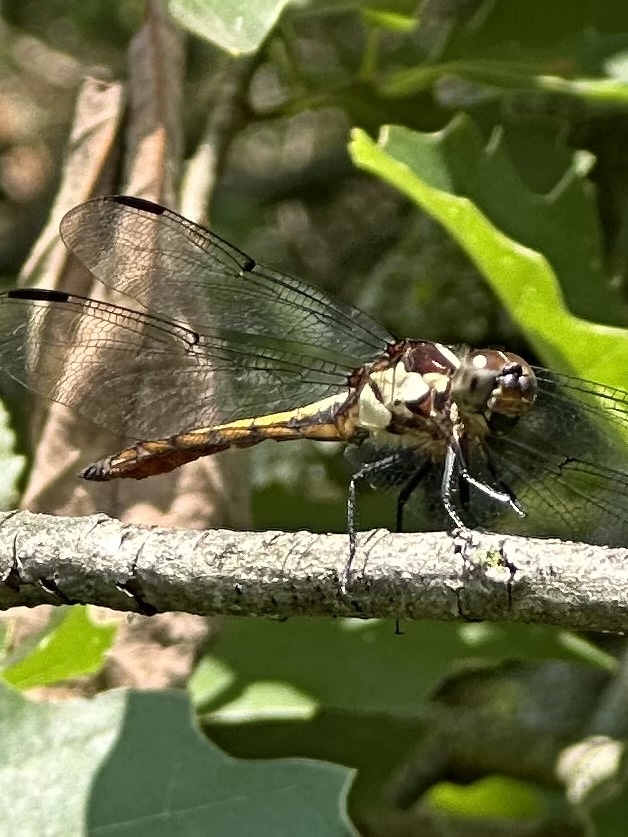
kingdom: Animalia
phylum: Arthropoda
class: Insecta
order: Odonata
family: Libellulidae
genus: Libellula
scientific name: Libellula incesta
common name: Slaty skimmer
